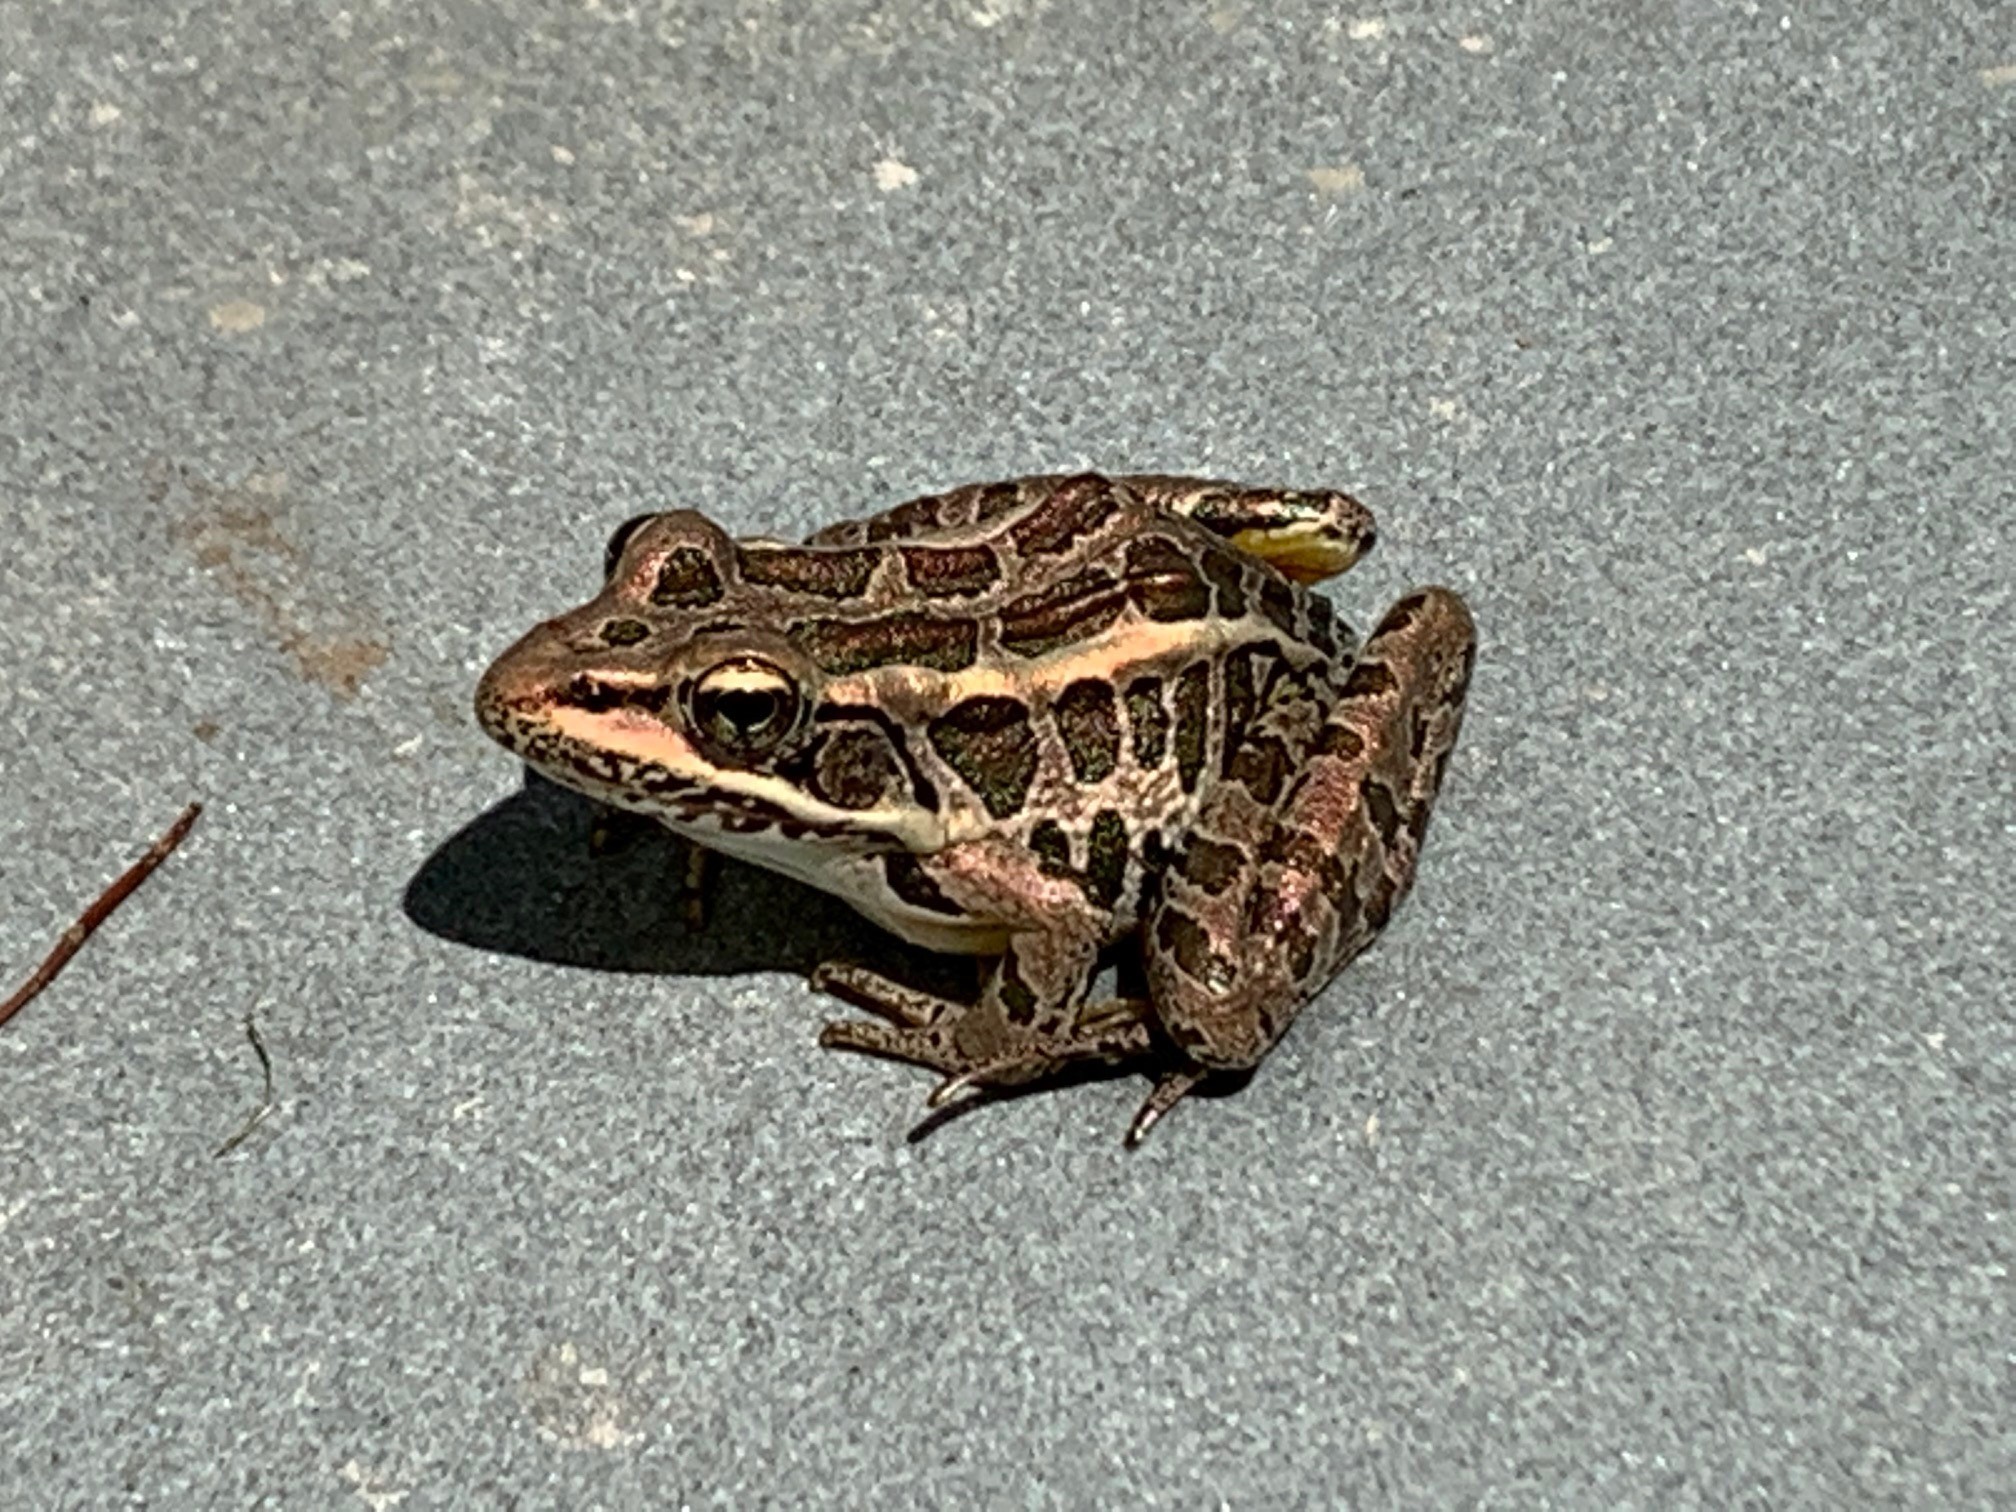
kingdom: Animalia
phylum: Chordata
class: Amphibia
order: Anura
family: Ranidae
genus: Lithobates
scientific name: Lithobates palustris
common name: Pickerel frog
